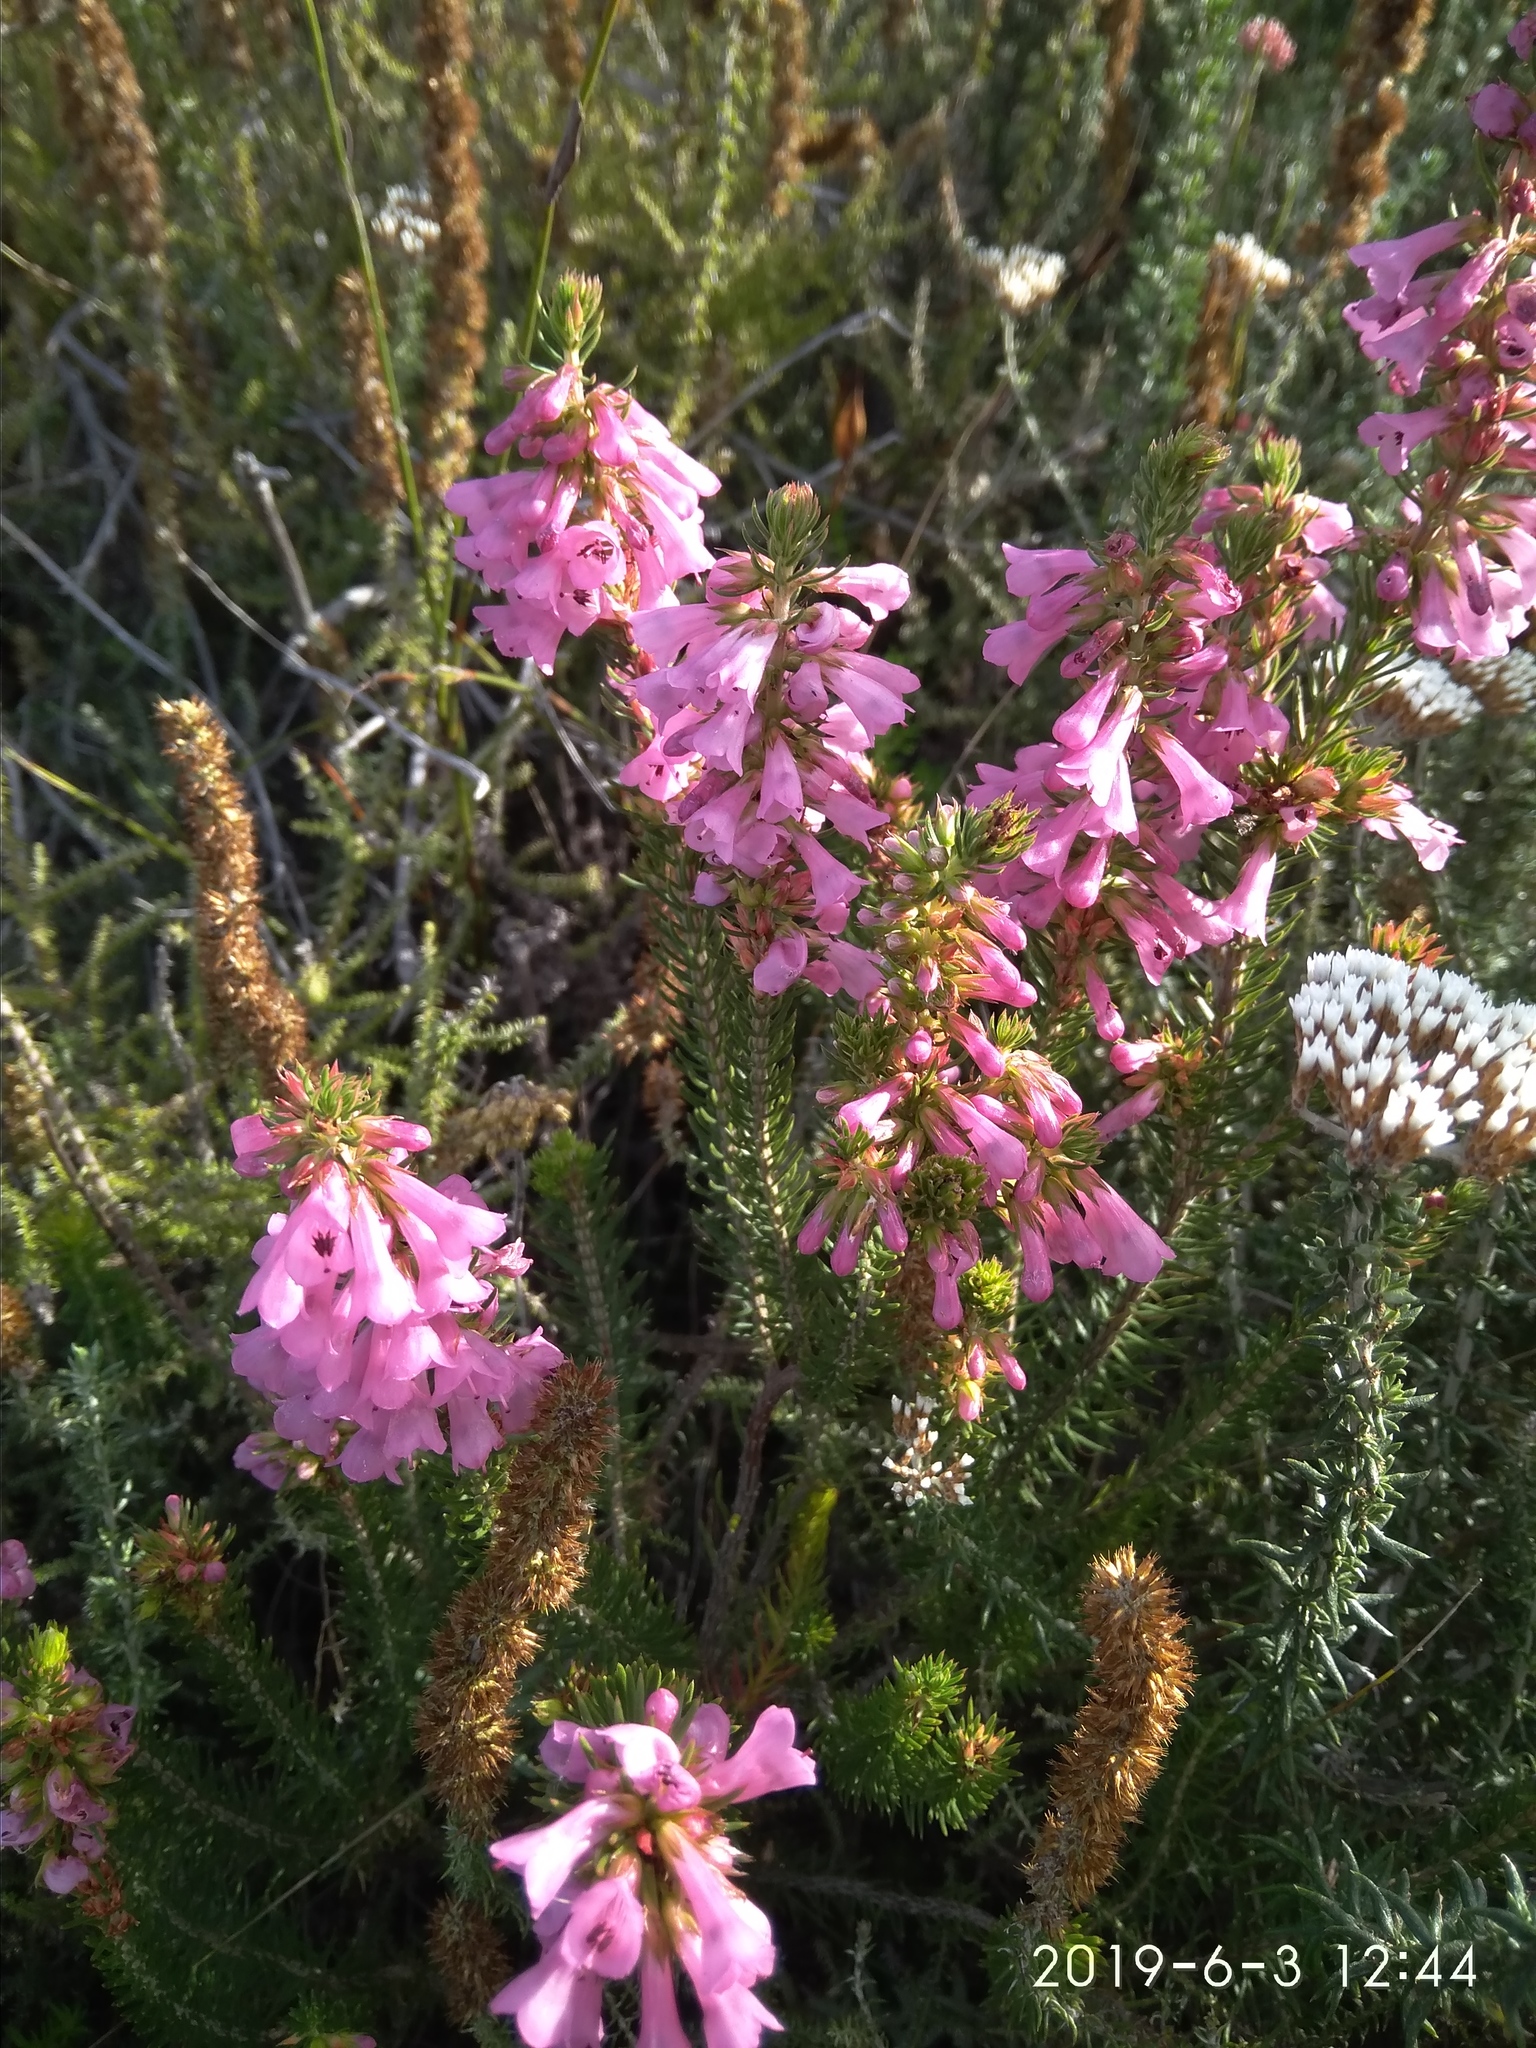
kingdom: Plantae
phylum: Tracheophyta
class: Magnoliopsida
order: Ericales
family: Ericaceae
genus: Erica
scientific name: Erica abietina
